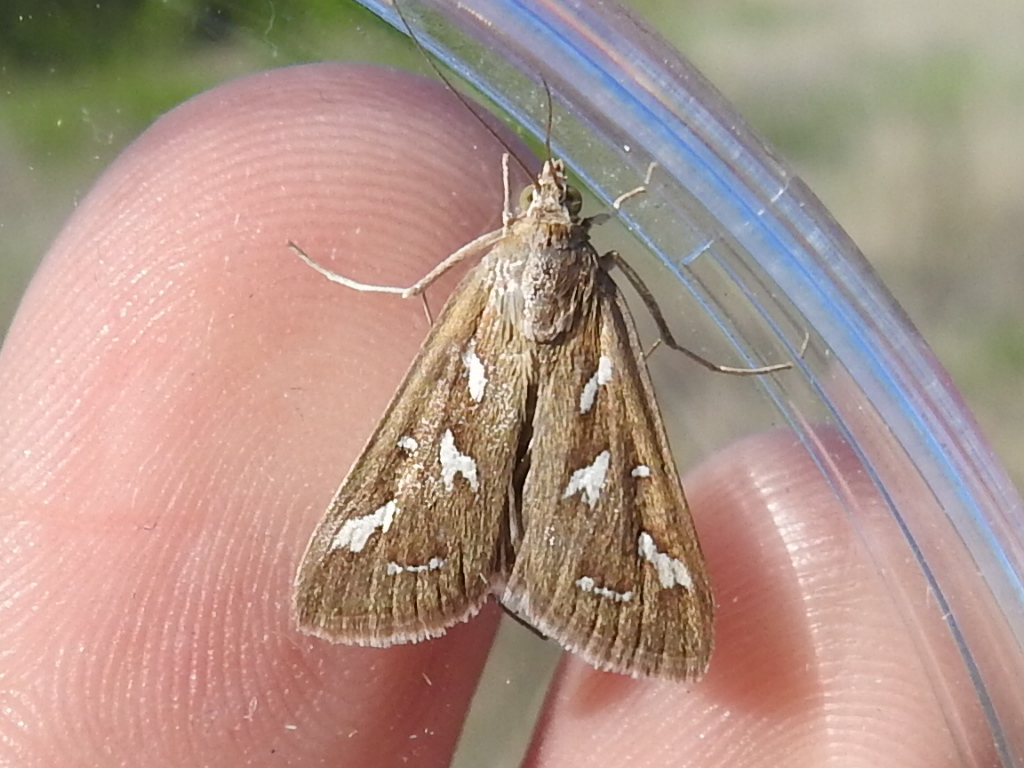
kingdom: Animalia
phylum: Arthropoda
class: Insecta
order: Lepidoptera
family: Crambidae
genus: Diastictis
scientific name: Diastictis fracturalis
